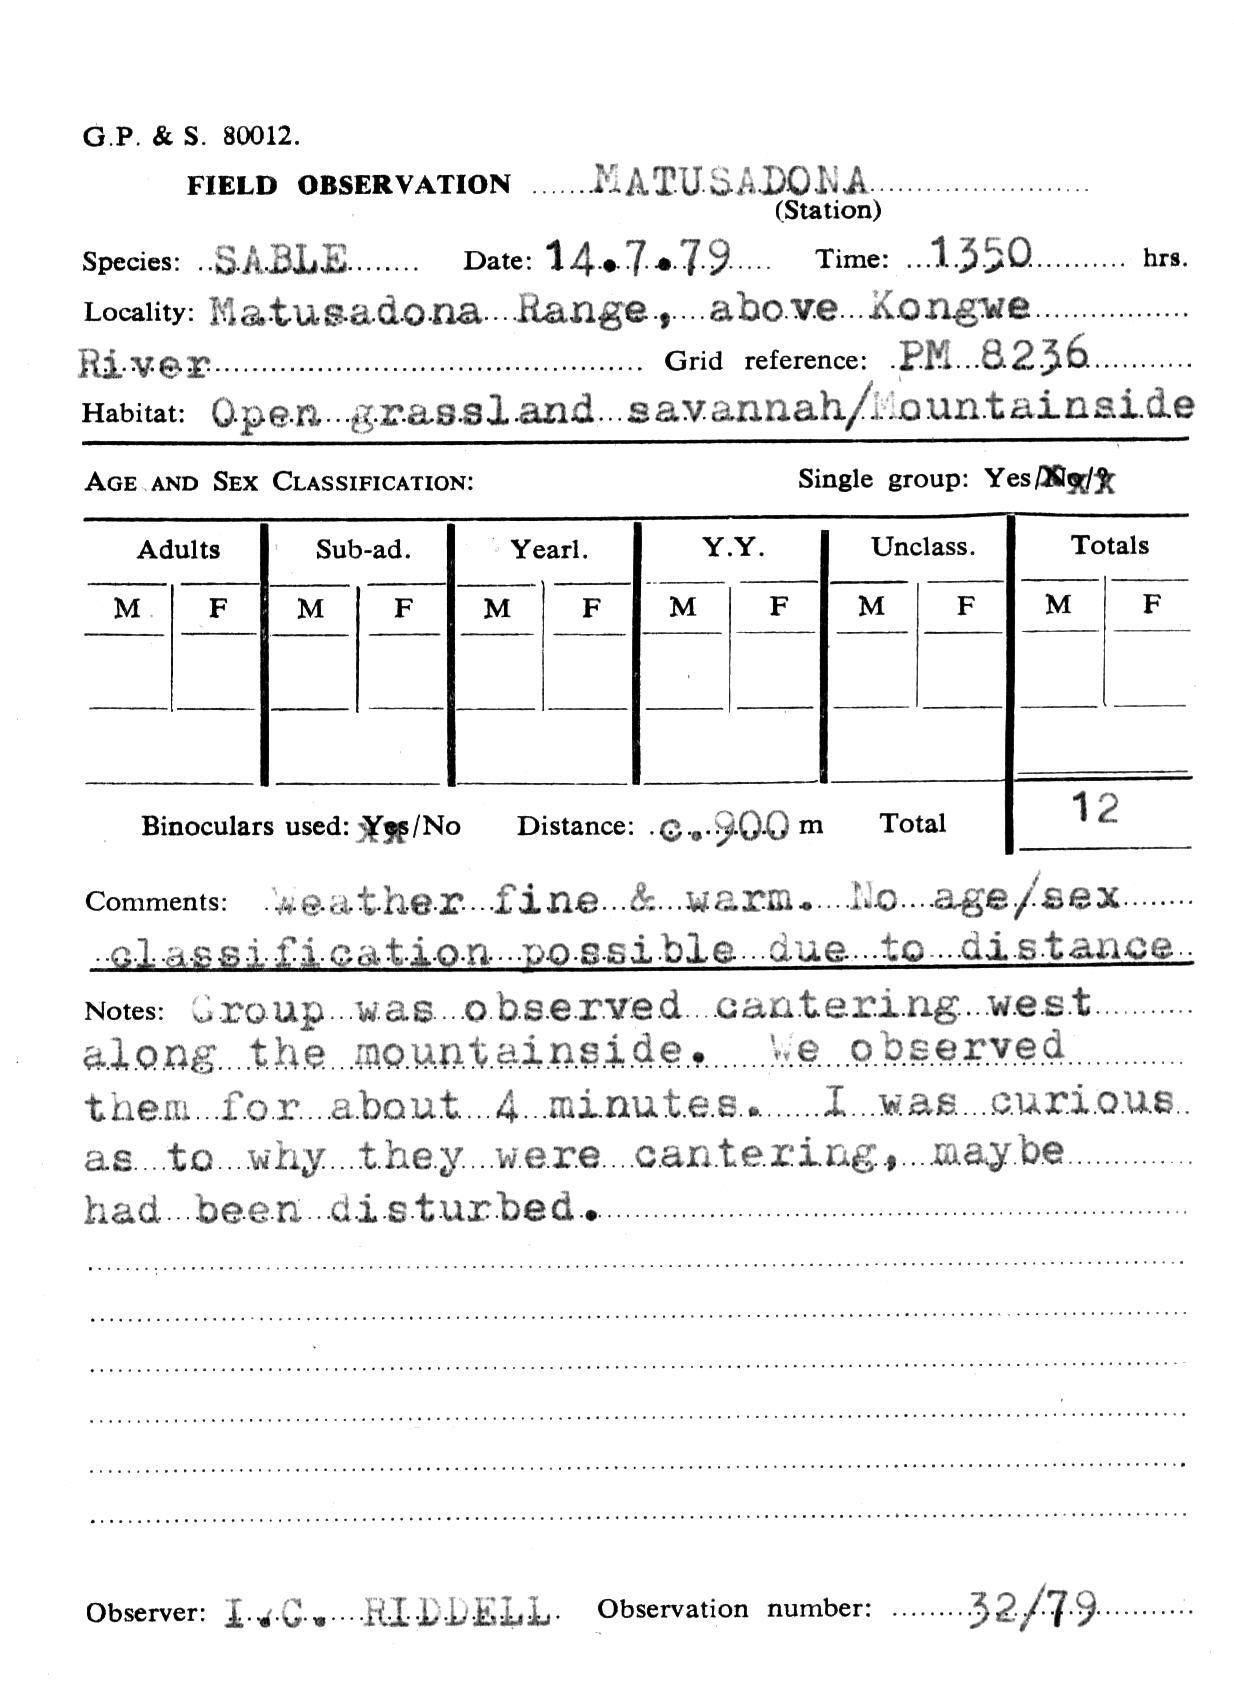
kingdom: Animalia
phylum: Chordata
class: Mammalia
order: Artiodactyla
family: Bovidae
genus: Hippotragus
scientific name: Hippotragus niger
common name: Sable antelope
